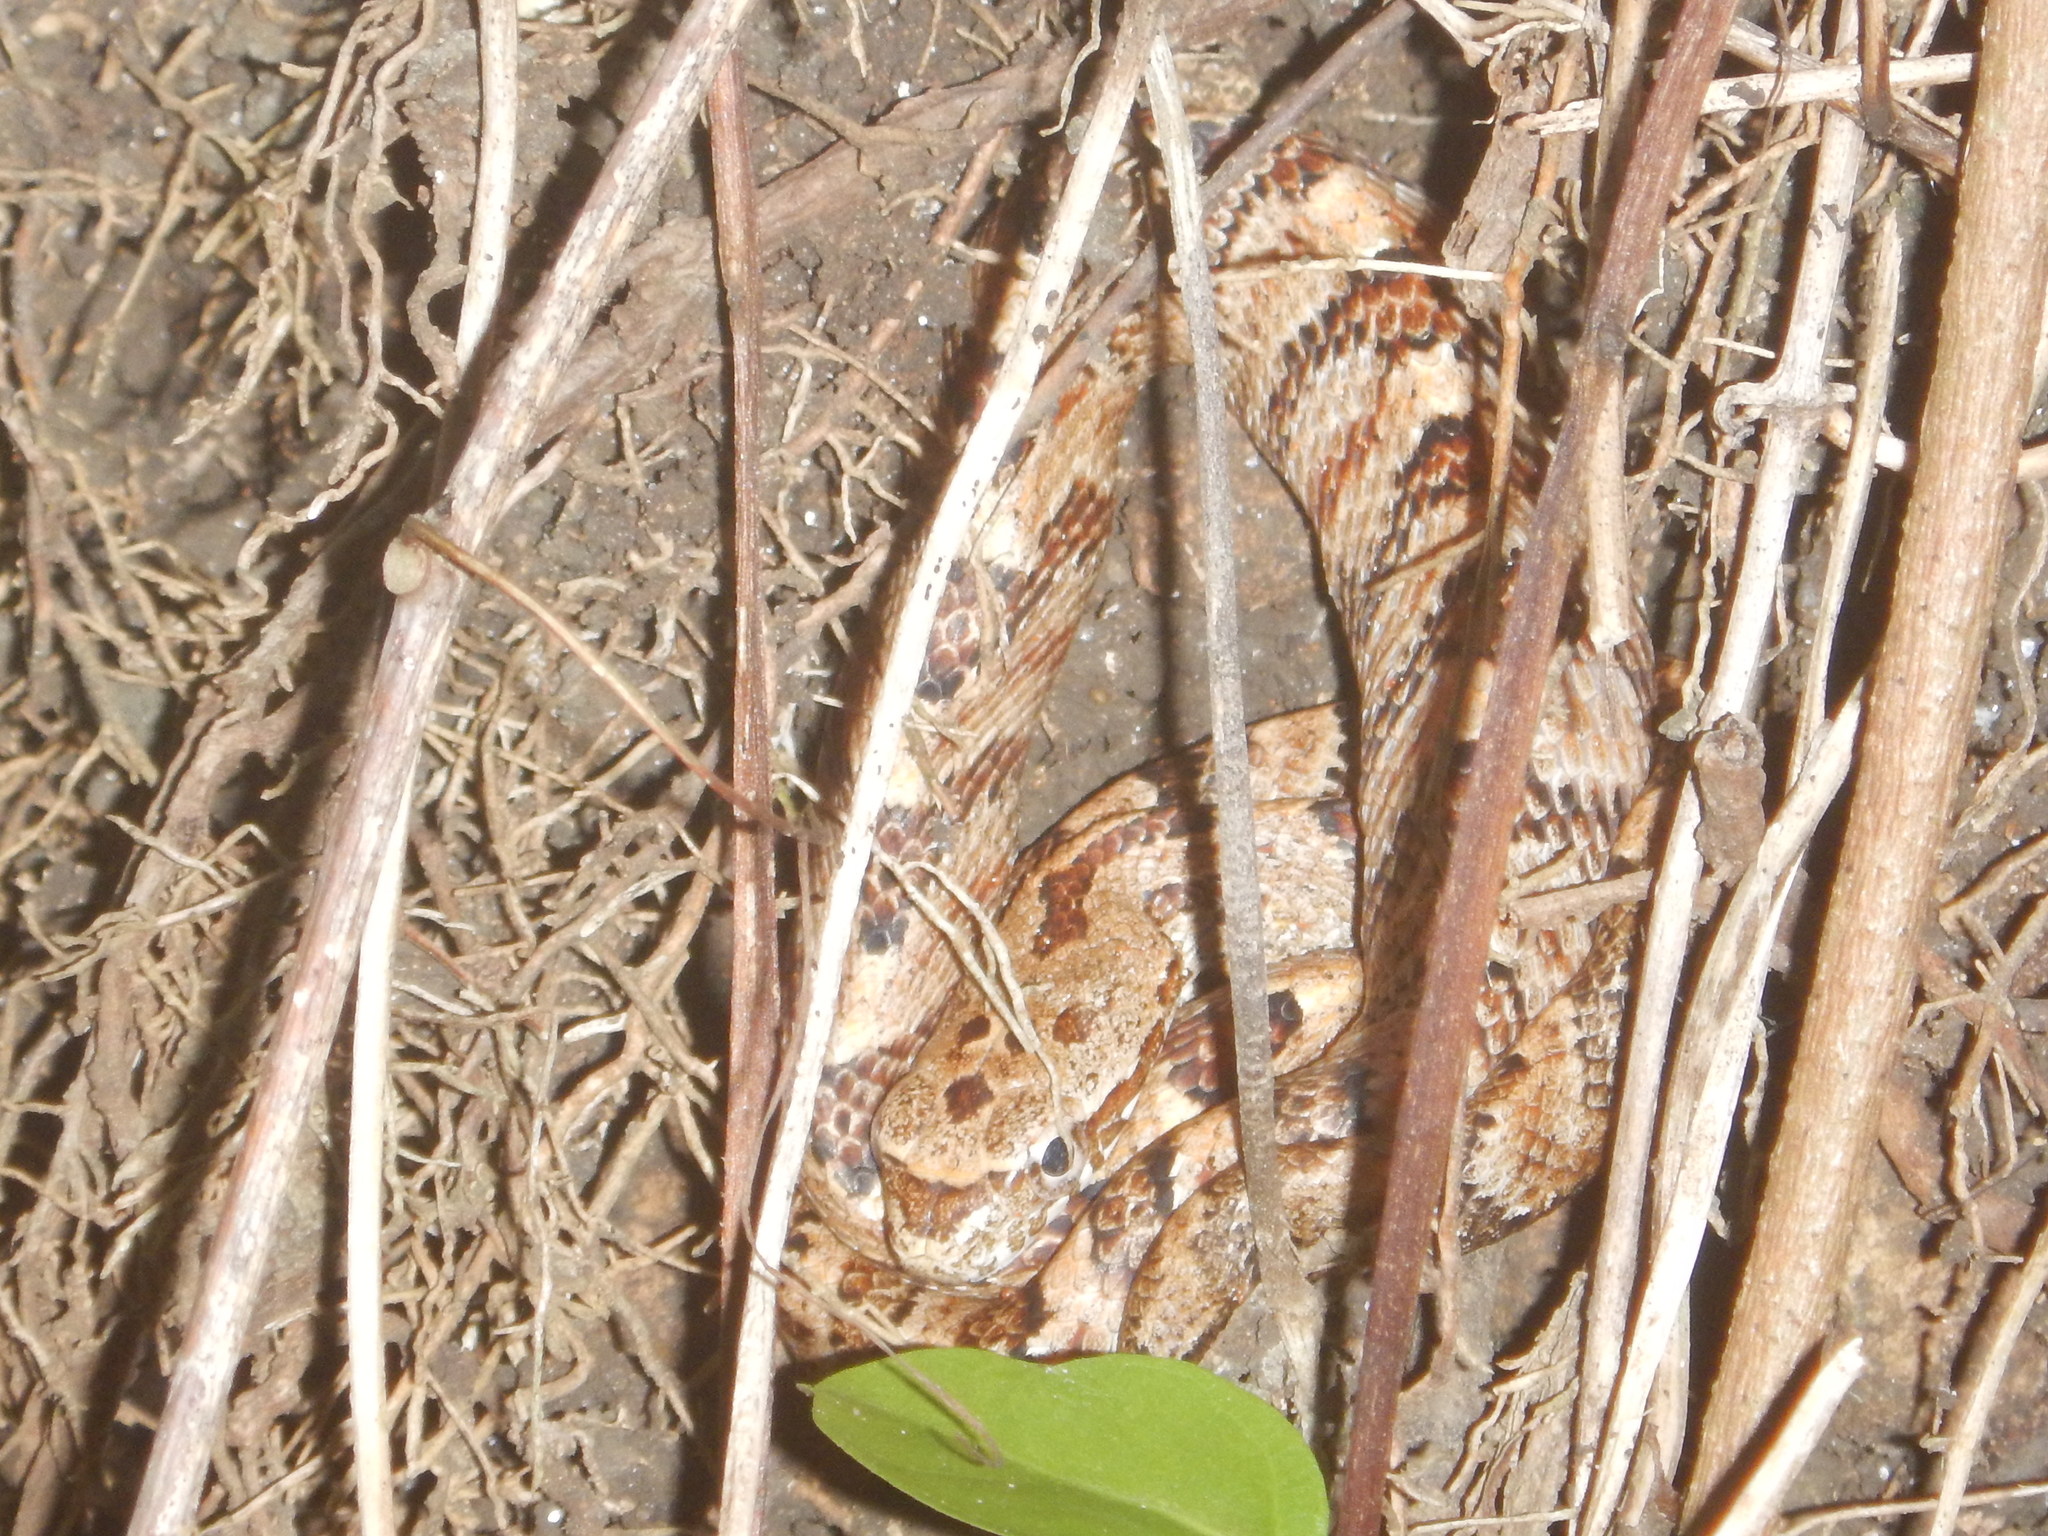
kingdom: Animalia
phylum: Chordata
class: Squamata
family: Colubridae
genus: Phrynonax
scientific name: Phrynonax poecilonotus
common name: Puffing snake
